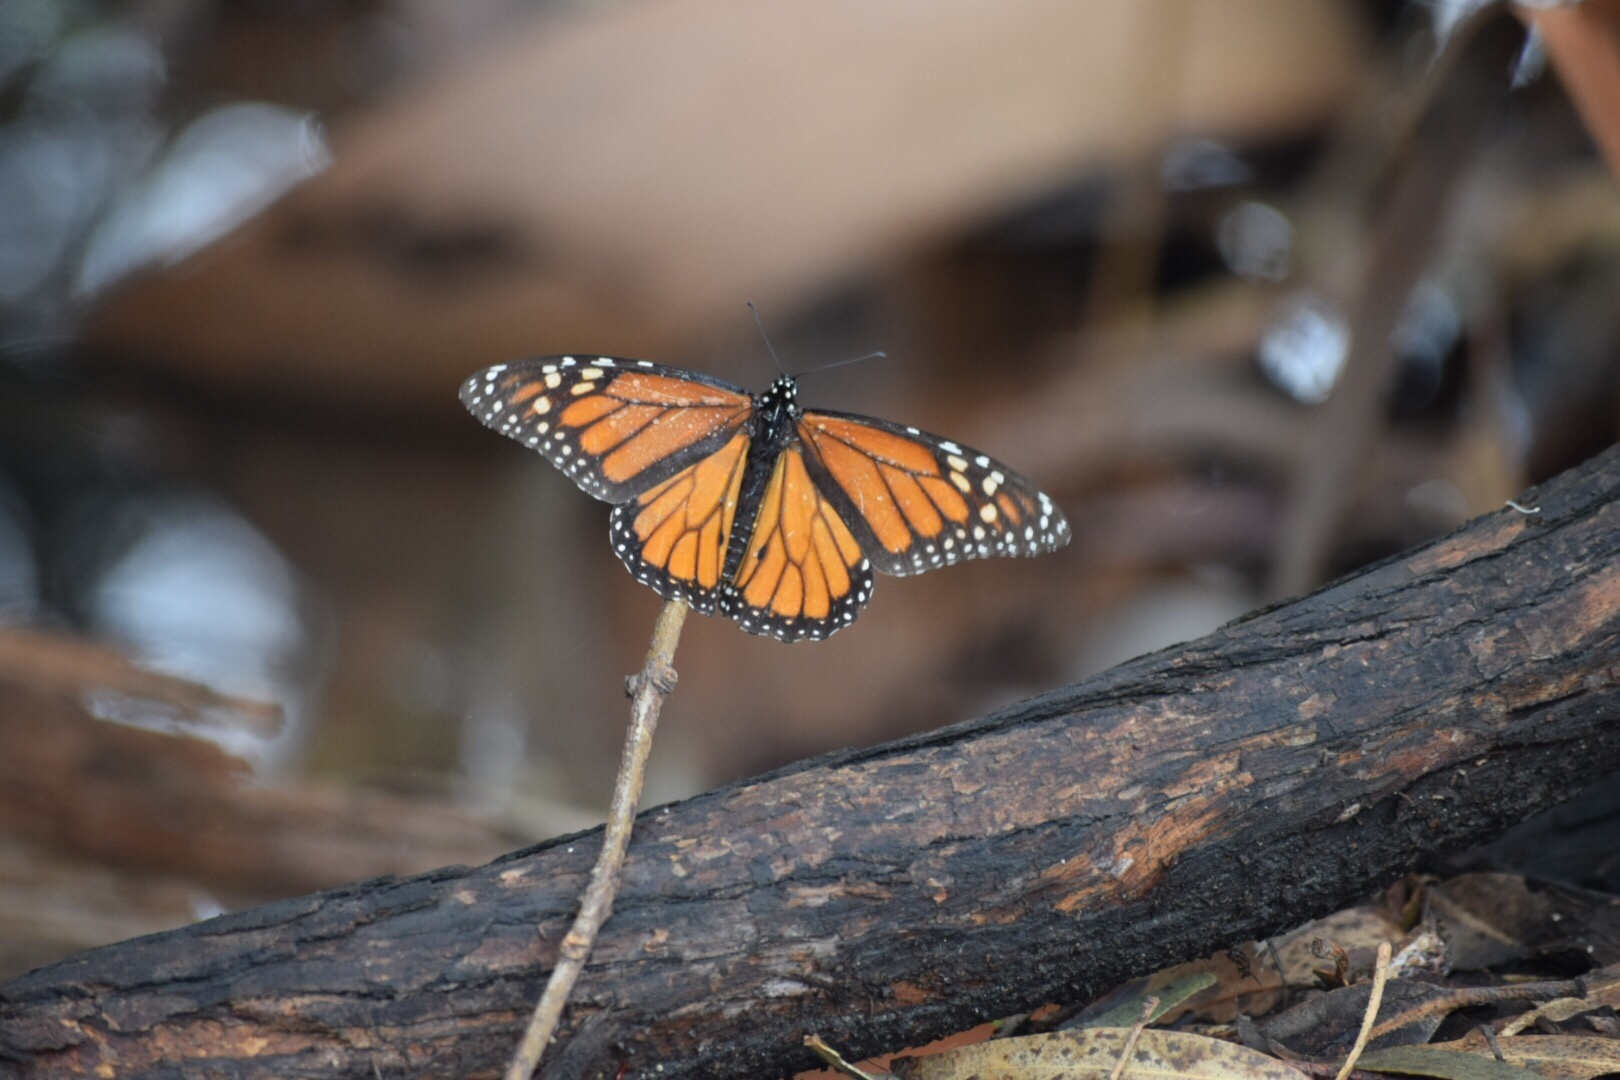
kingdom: Animalia
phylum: Arthropoda
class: Insecta
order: Lepidoptera
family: Nymphalidae
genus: Danaus
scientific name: Danaus plexippus
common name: Monarch
